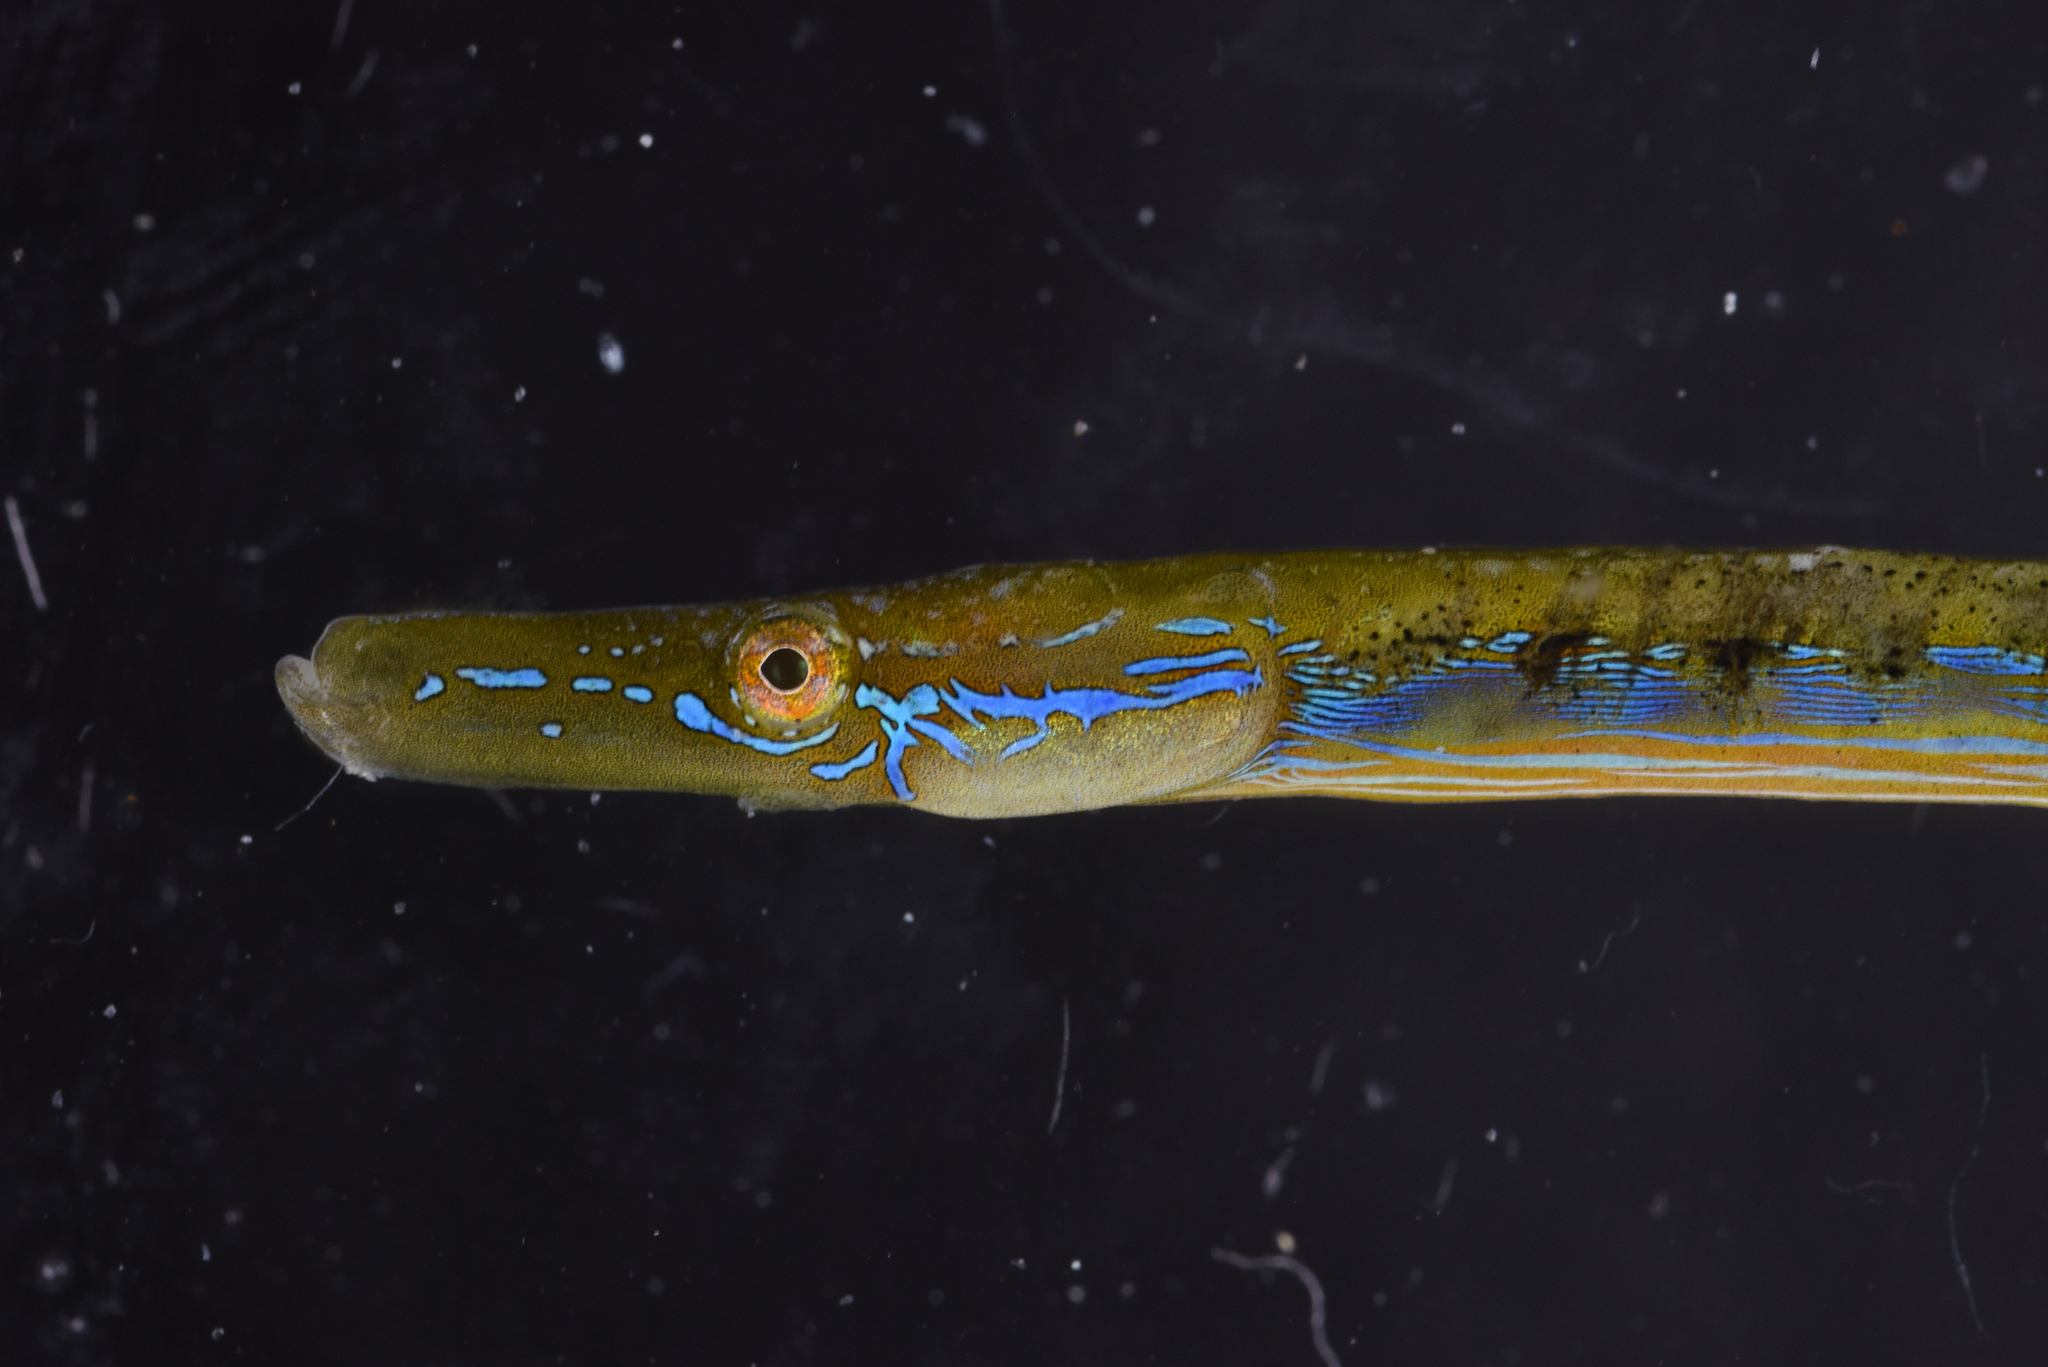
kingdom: Animalia
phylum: Chordata
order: Syngnathiformes
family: Syngnathidae
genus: Nerophis
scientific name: Nerophis ophidion
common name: Straight-nosed pipefish
